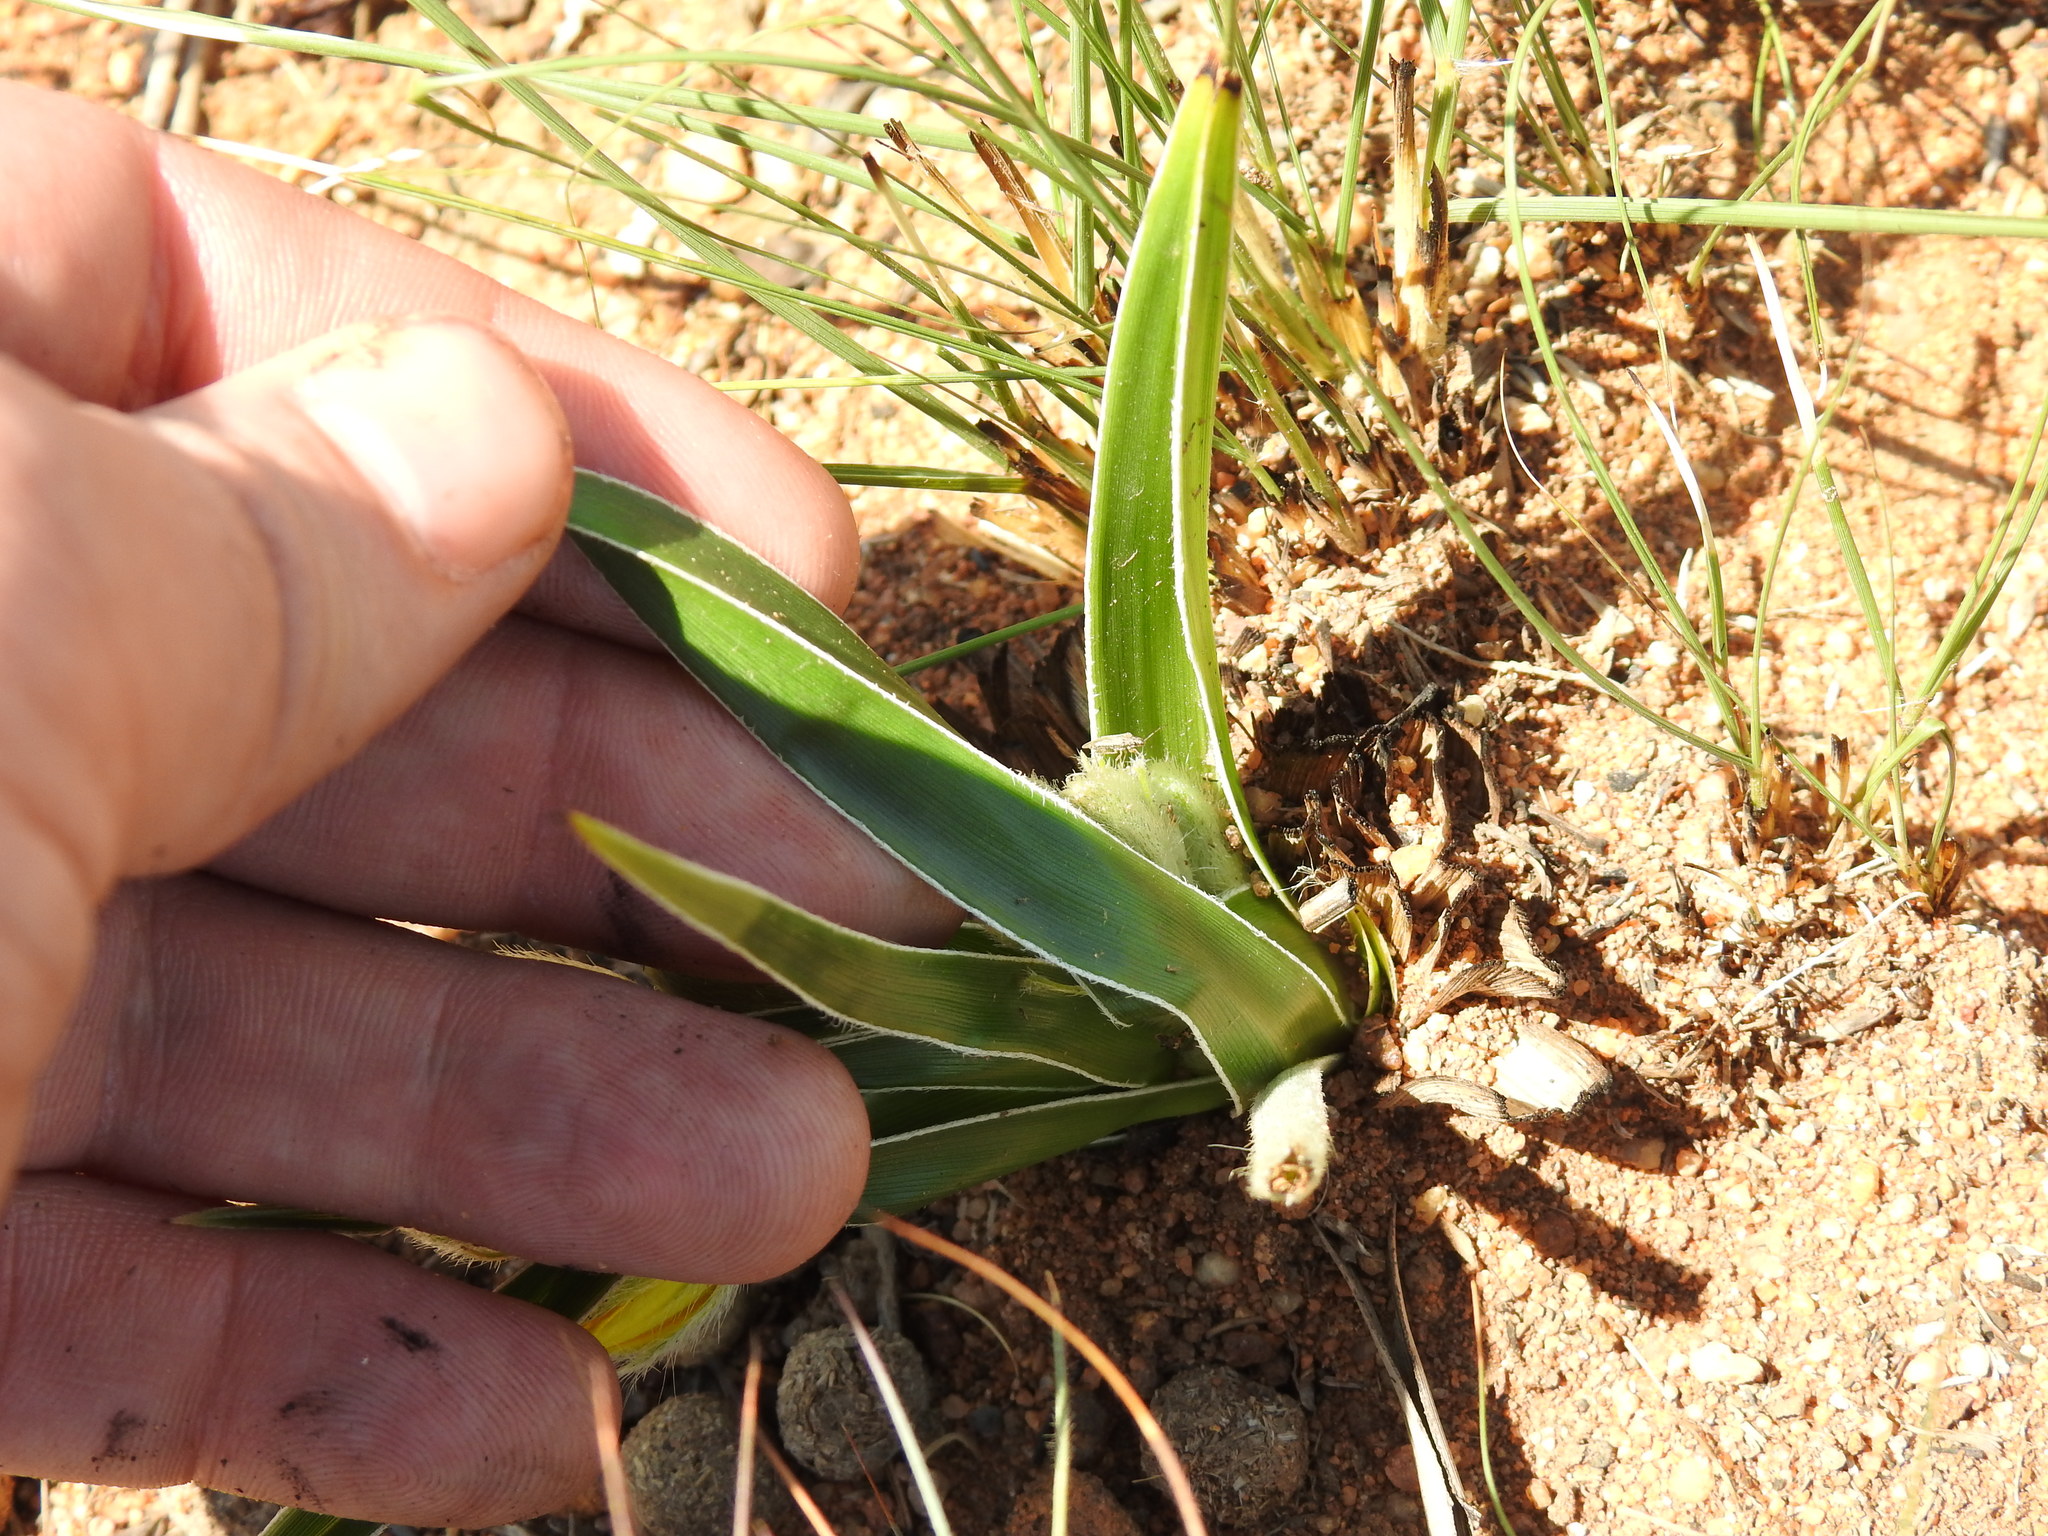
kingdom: Plantae
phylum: Tracheophyta
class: Liliopsida
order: Asparagales
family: Hypoxidaceae
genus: Hypoxis
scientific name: Hypoxis obtusa
